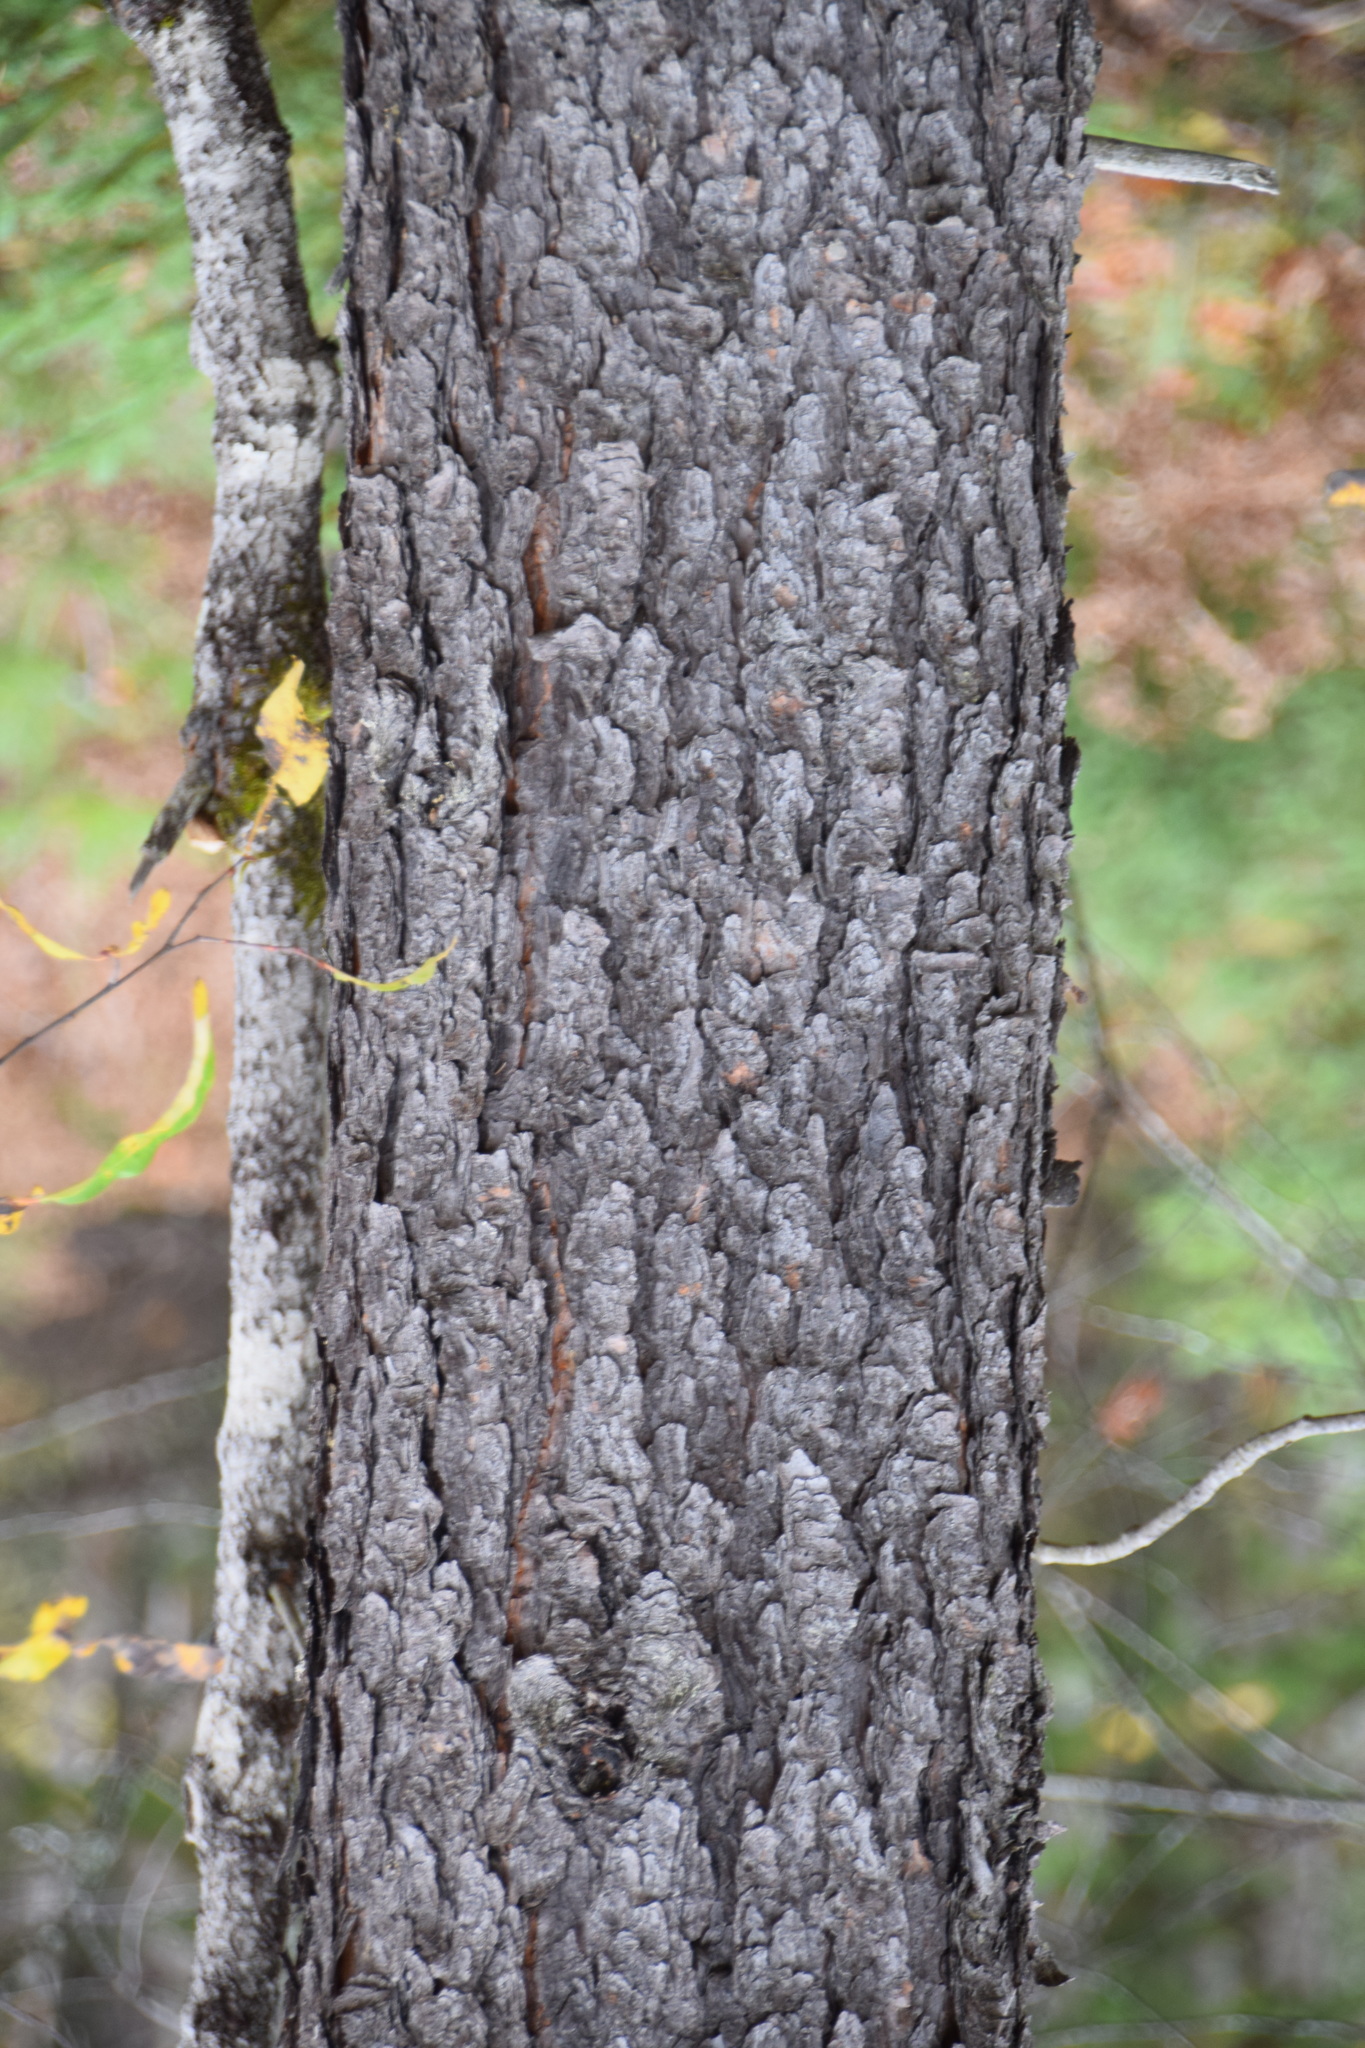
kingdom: Plantae
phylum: Tracheophyta
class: Pinopsida
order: Pinales
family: Pinaceae
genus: Pinus
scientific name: Pinus banksiana
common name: Jack pine
